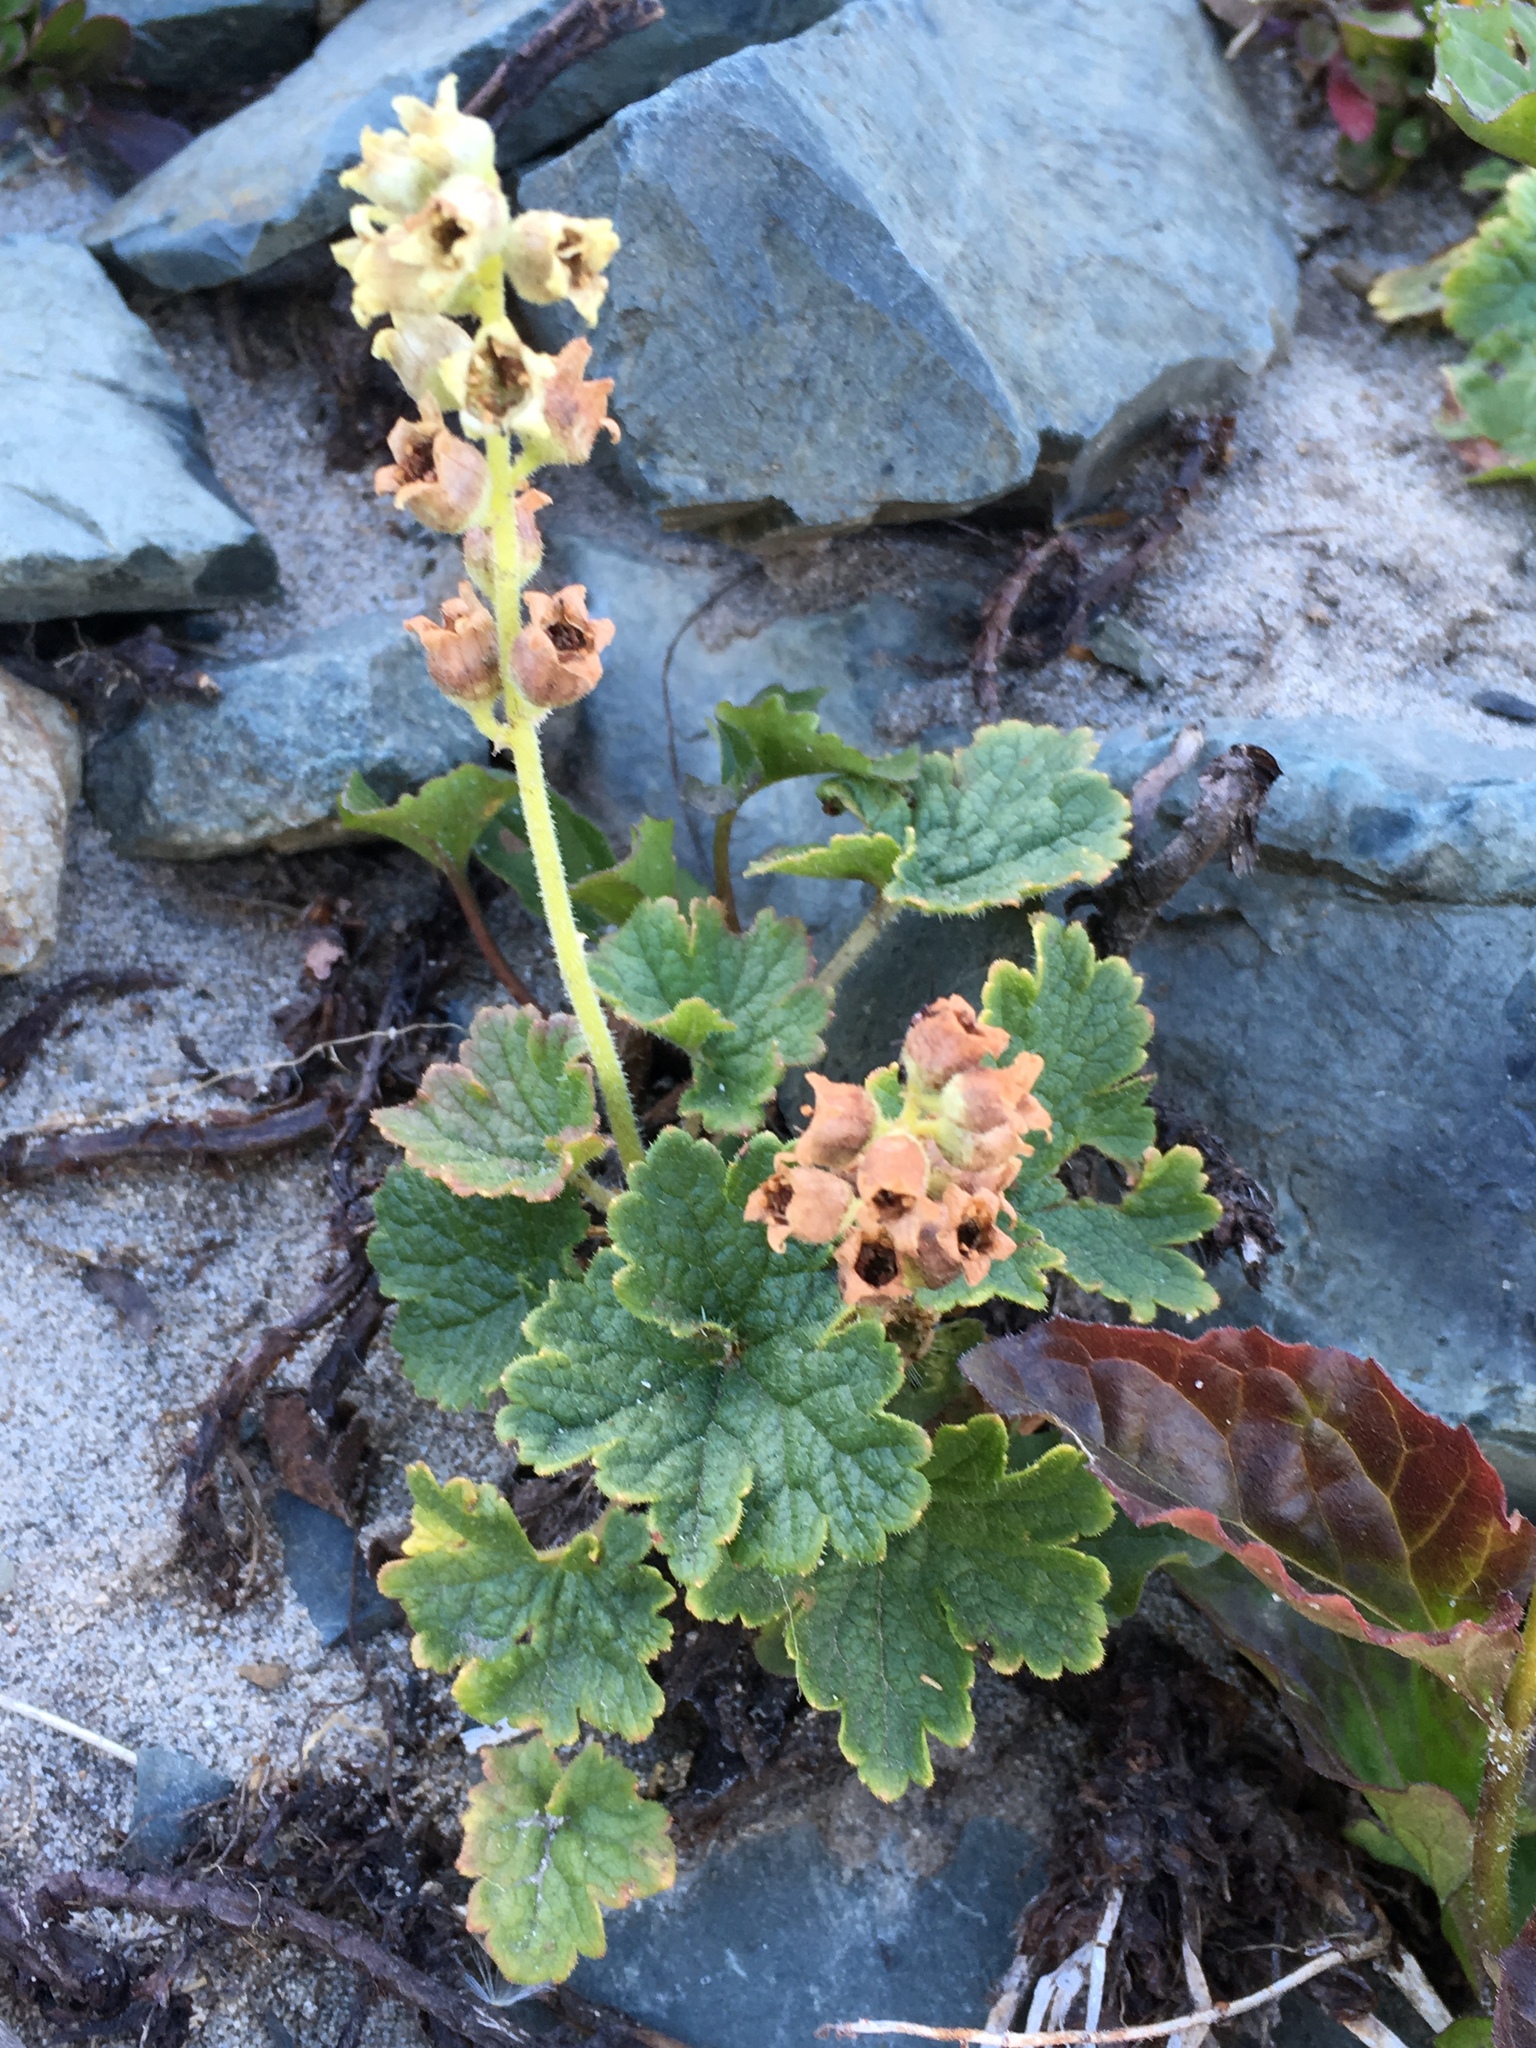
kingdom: Plantae
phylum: Tracheophyta
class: Magnoliopsida
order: Saxifragales
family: Saxifragaceae
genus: Elmera
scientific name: Elmera racemosa
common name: Elmera
